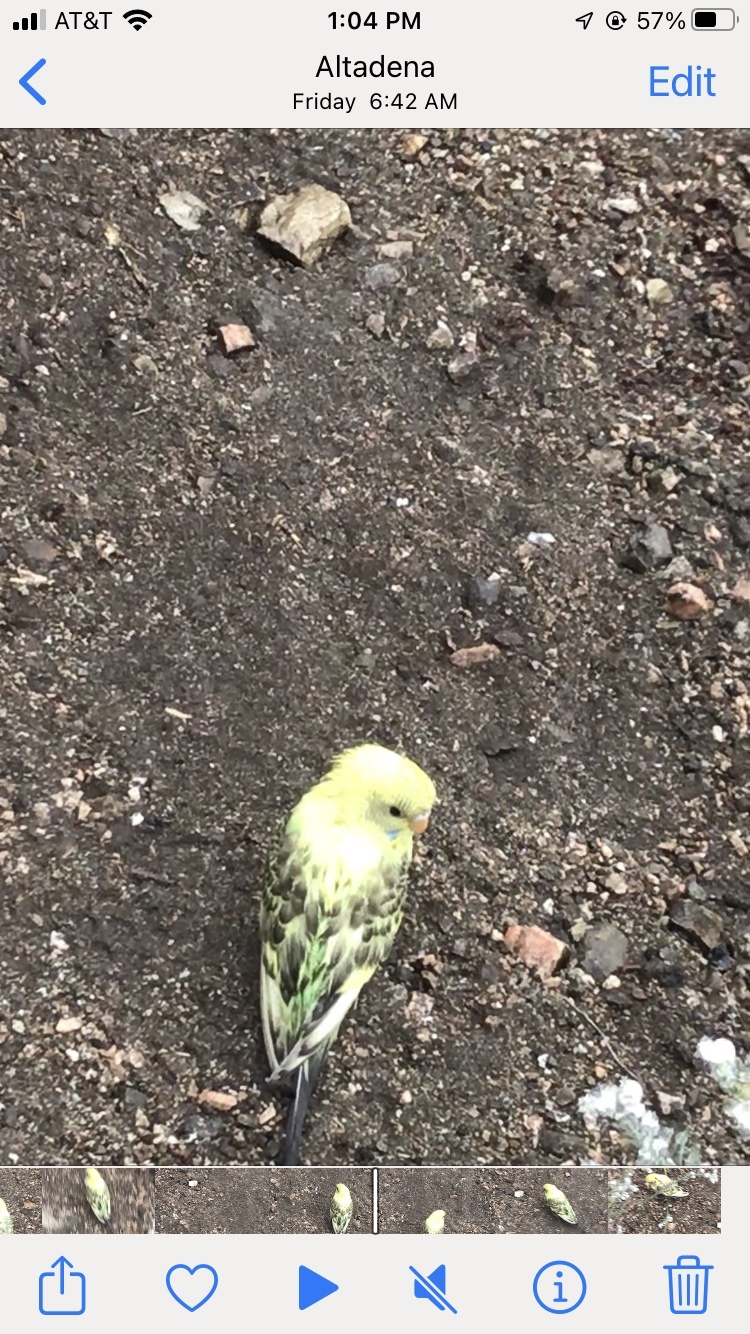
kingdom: Animalia
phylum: Chordata
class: Aves
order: Psittaciformes
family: Psittacidae
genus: Melopsittacus
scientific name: Melopsittacus undulatus
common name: Budgerigar
